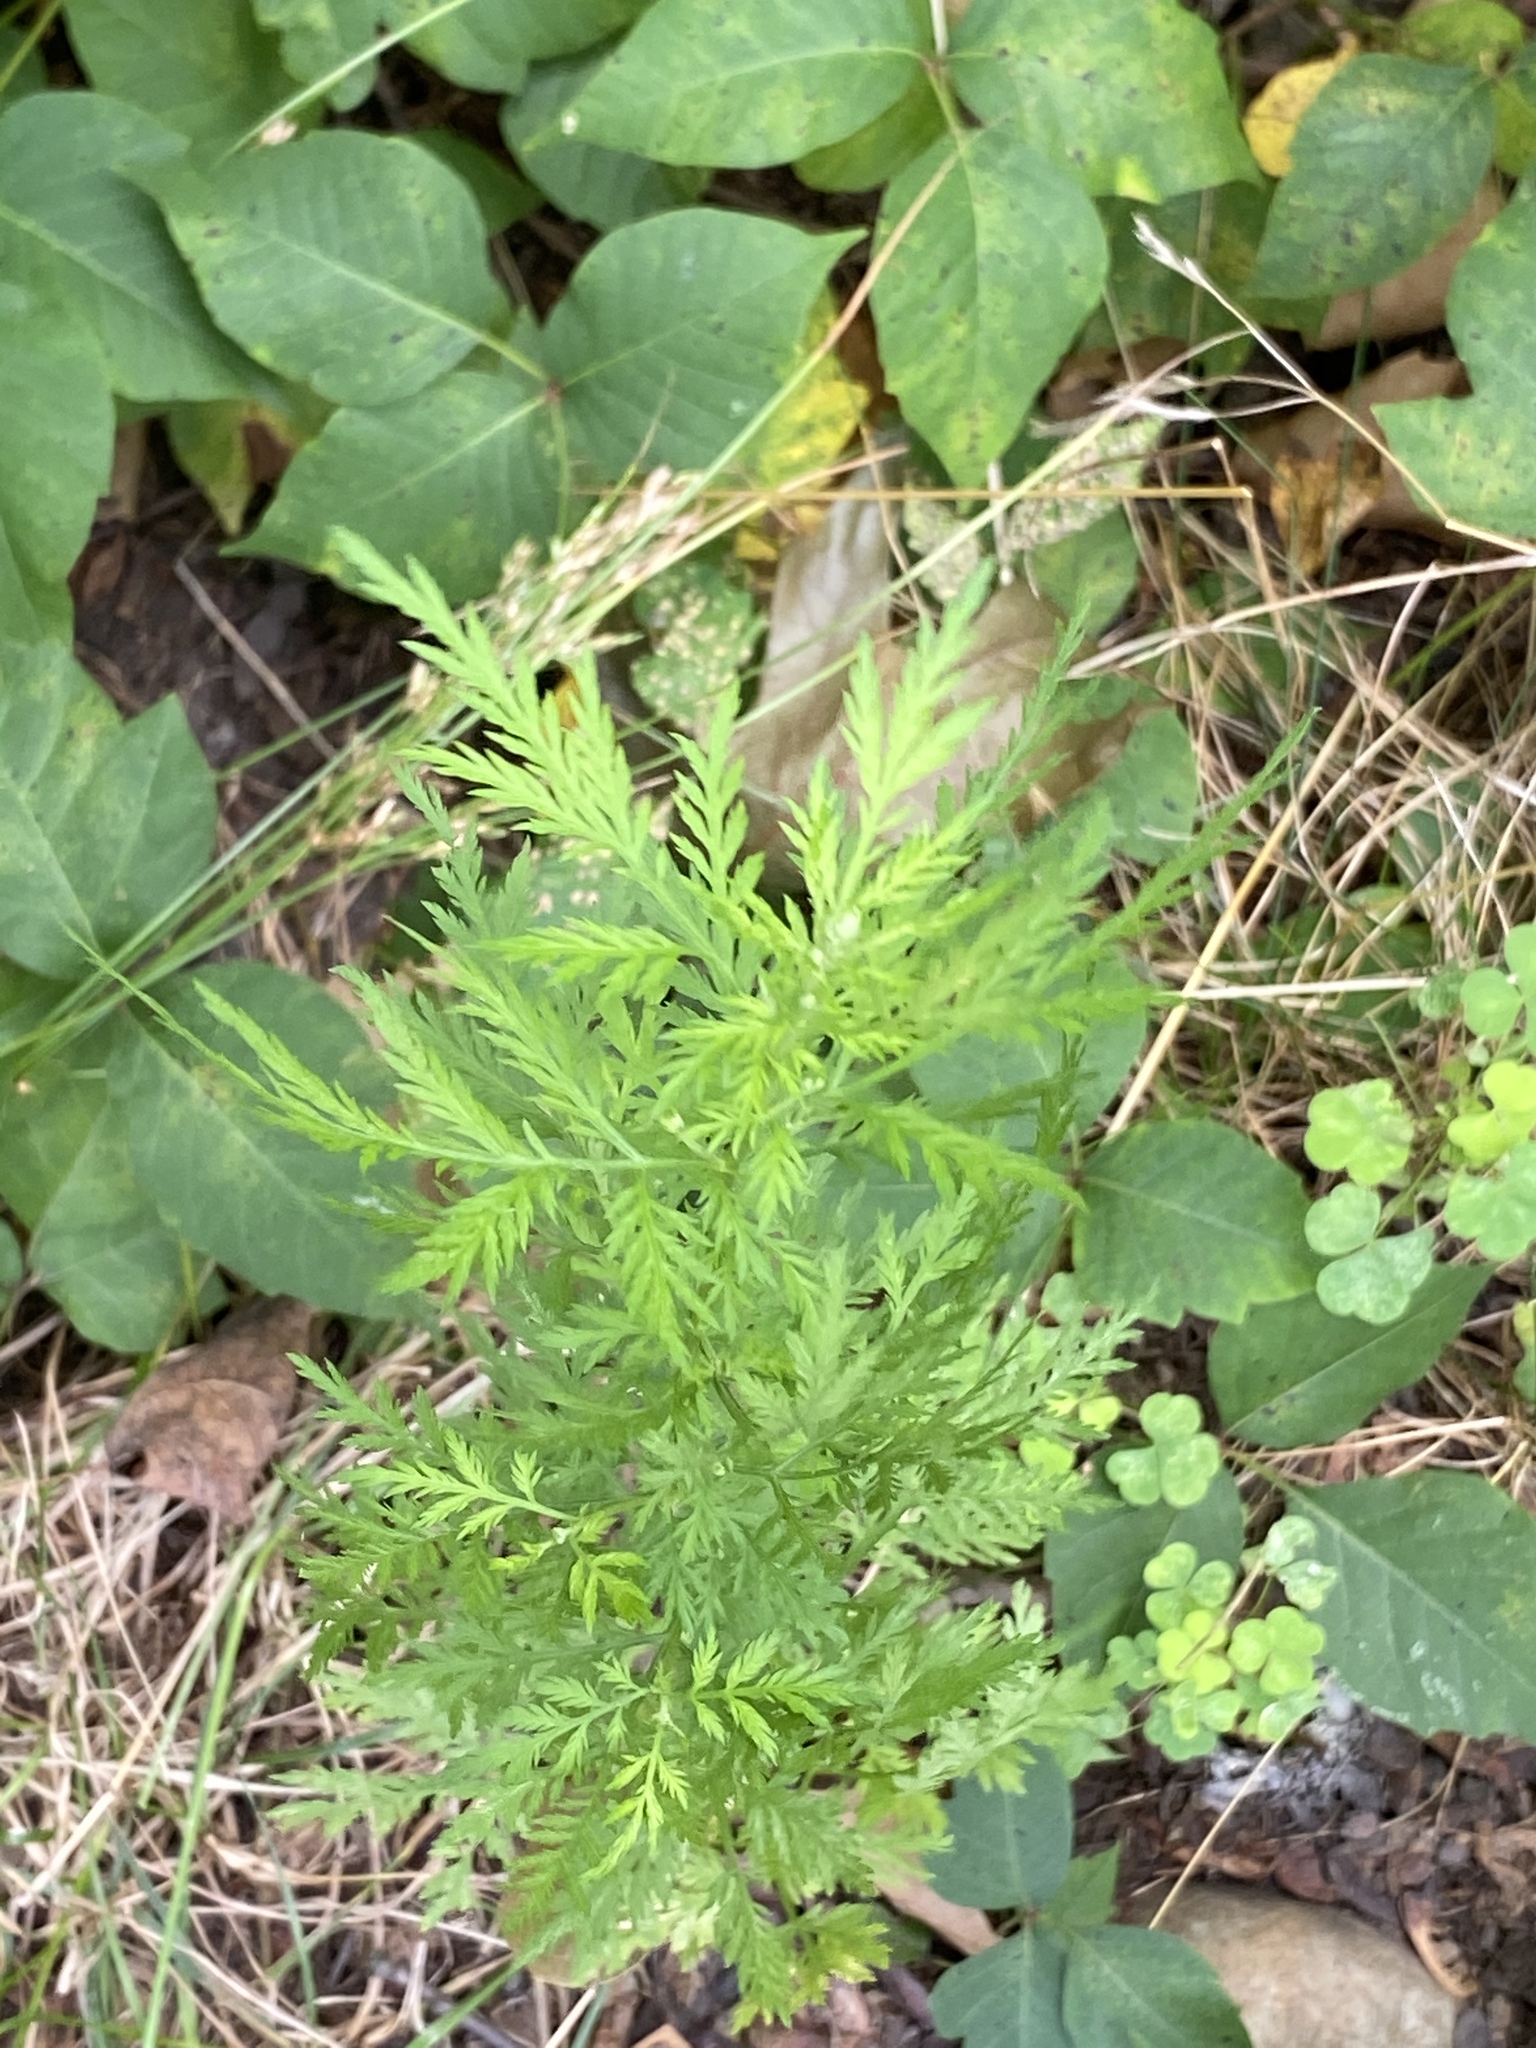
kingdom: Plantae
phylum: Tracheophyta
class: Magnoliopsida
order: Asterales
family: Asteraceae
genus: Artemisia
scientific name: Artemisia annua
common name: Sweet sagewort
